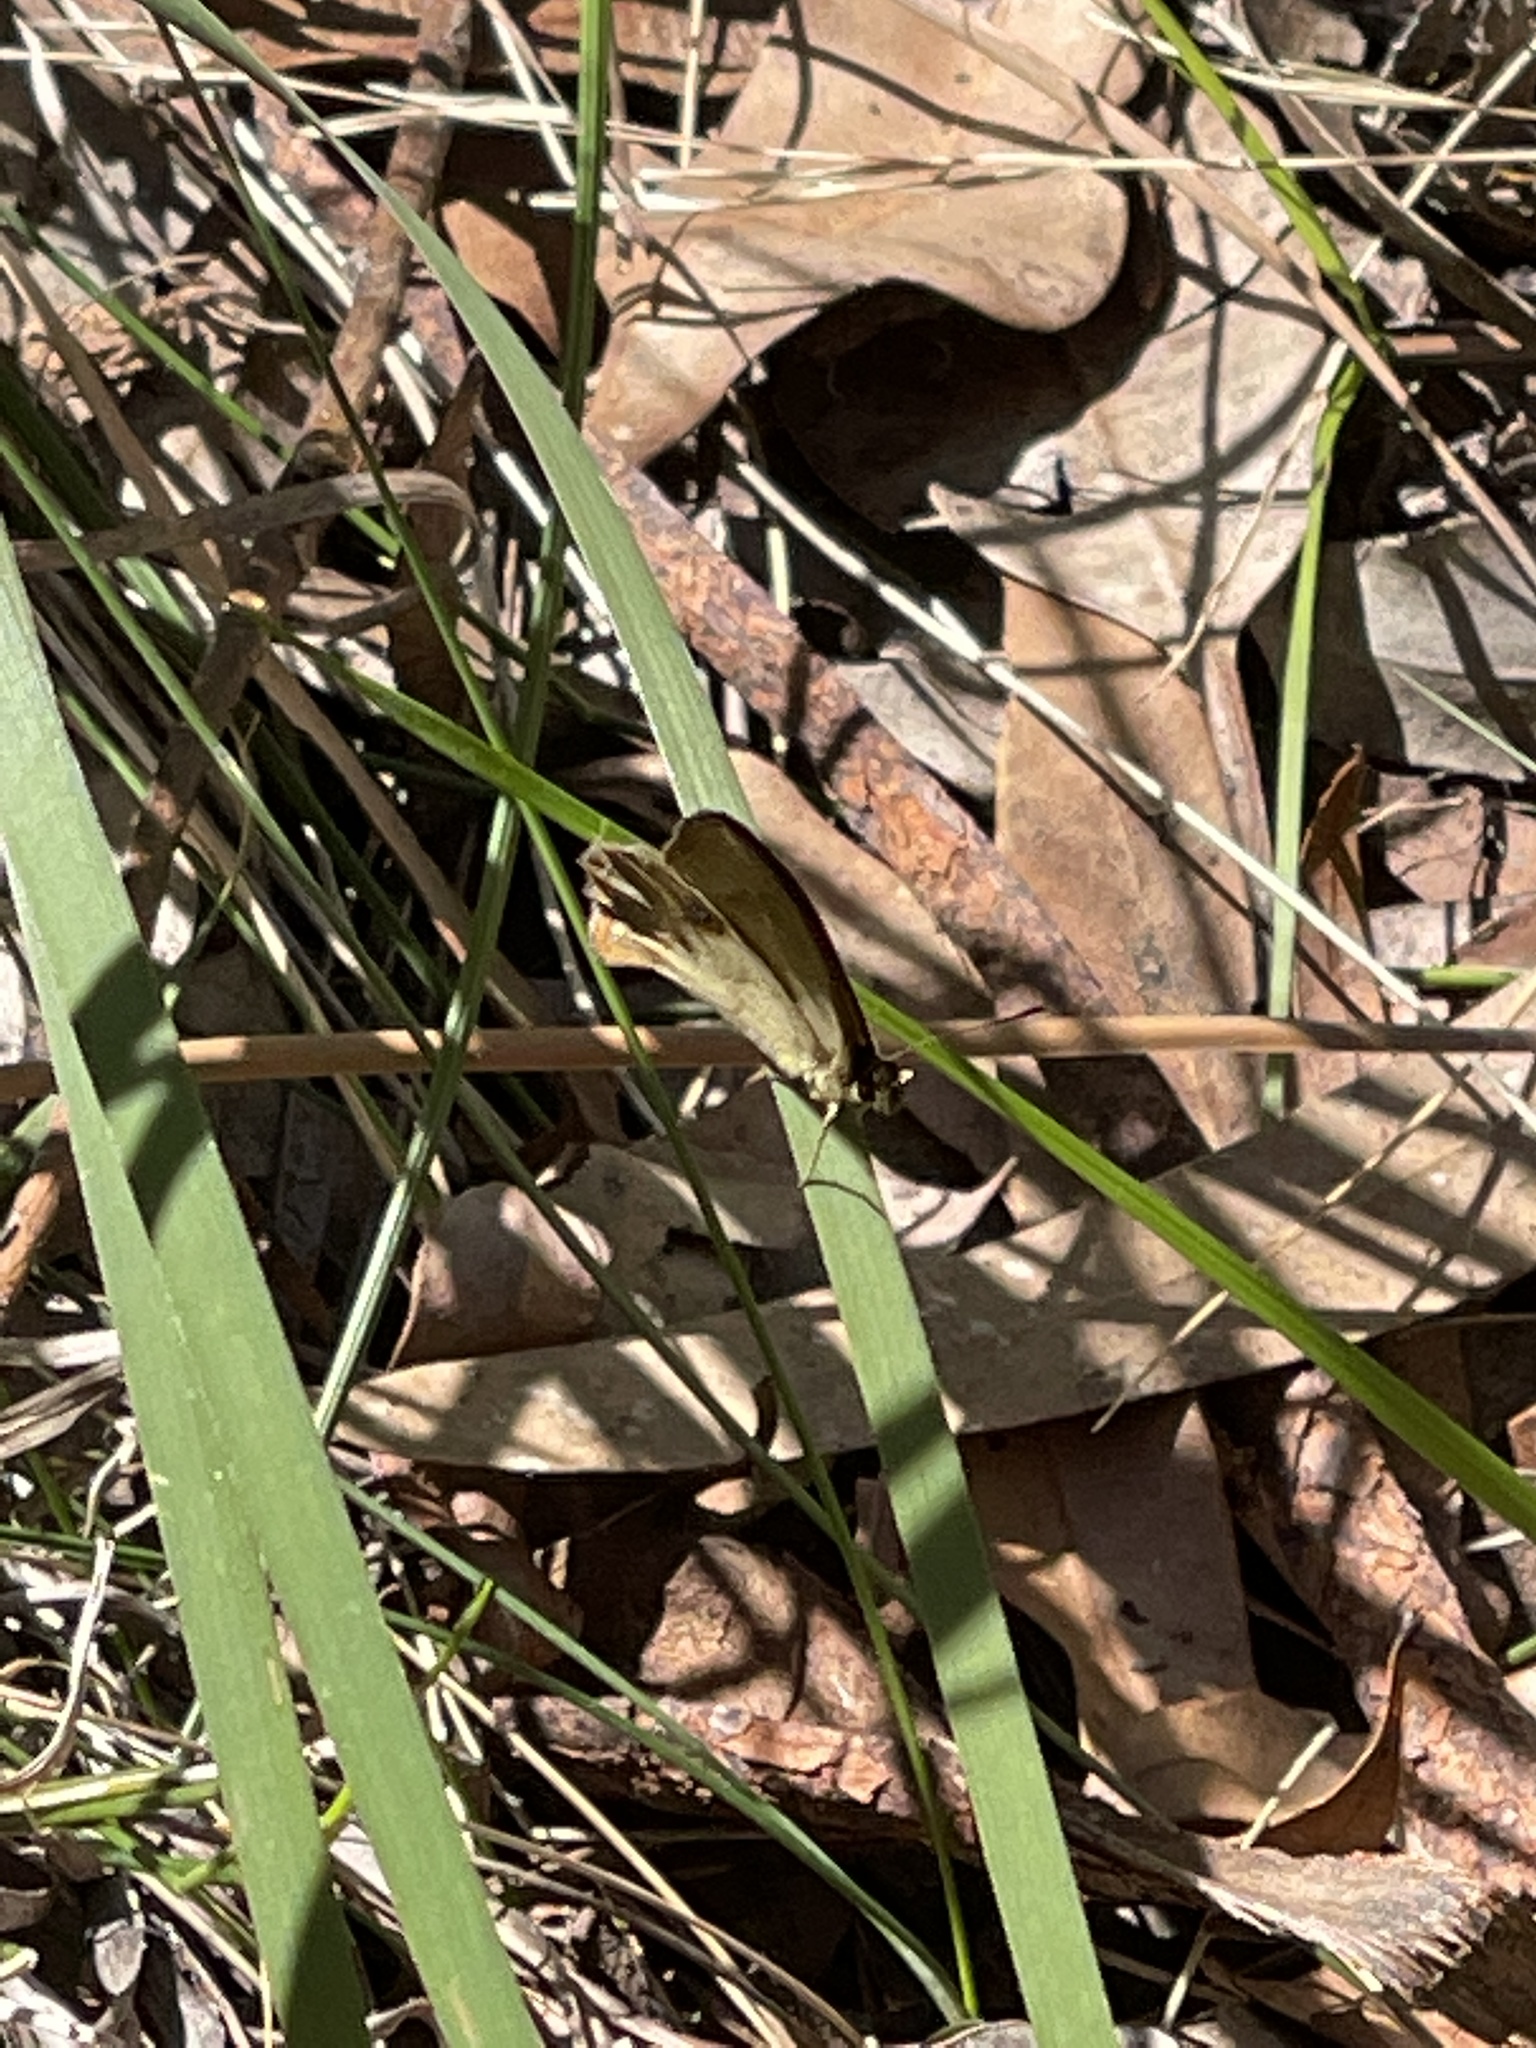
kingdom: Animalia
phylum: Arthropoda
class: Insecta
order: Lepidoptera
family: Nymphalidae
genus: Hypocysta
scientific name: Hypocysta metirius
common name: Brown ringlet
